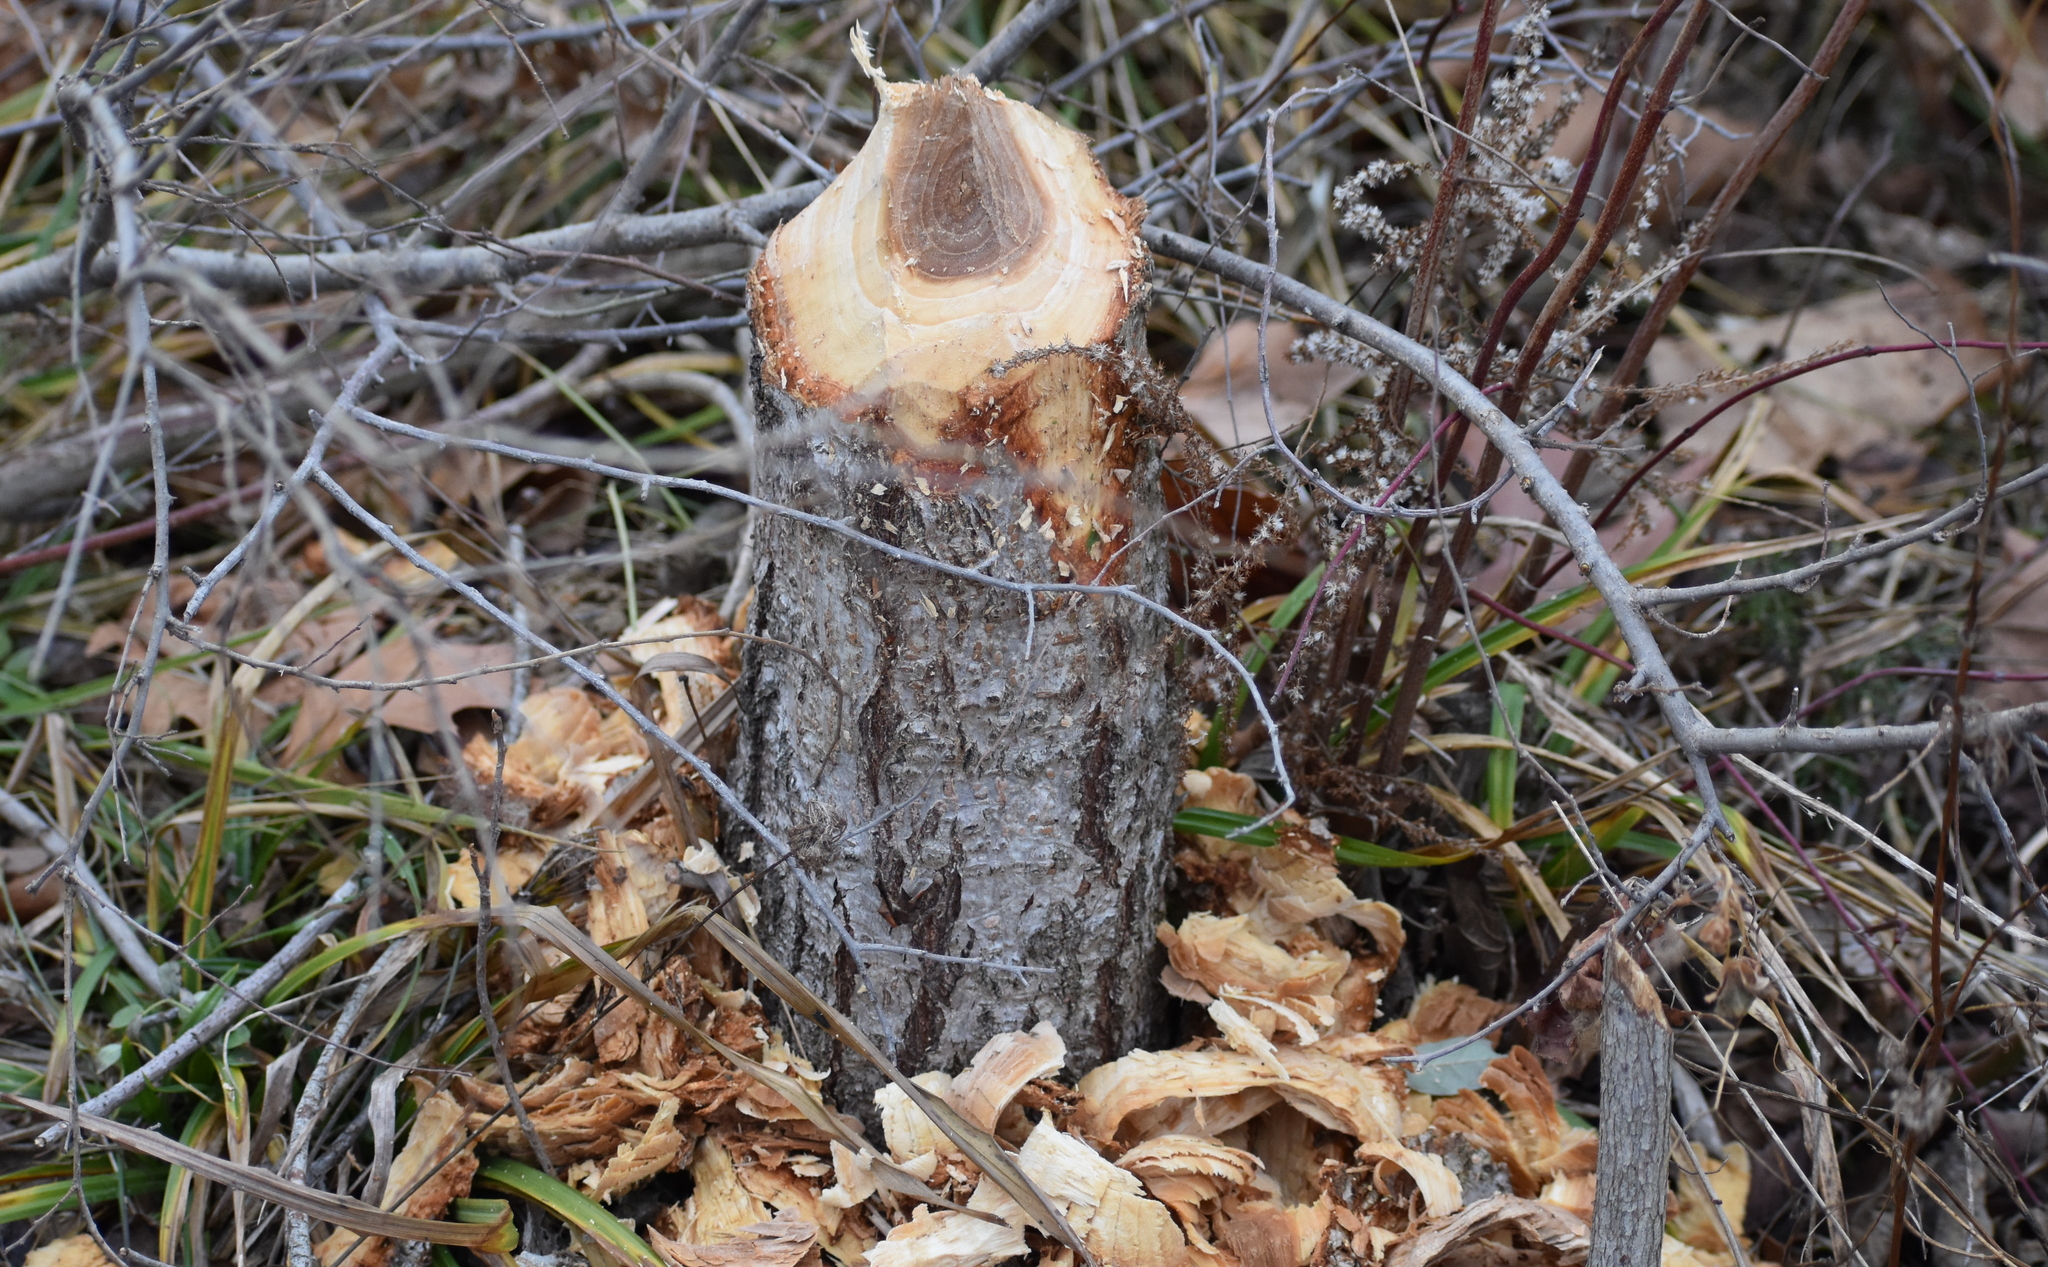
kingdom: Animalia
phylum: Chordata
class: Mammalia
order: Rodentia
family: Castoridae
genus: Castor
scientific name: Castor canadensis
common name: American beaver
